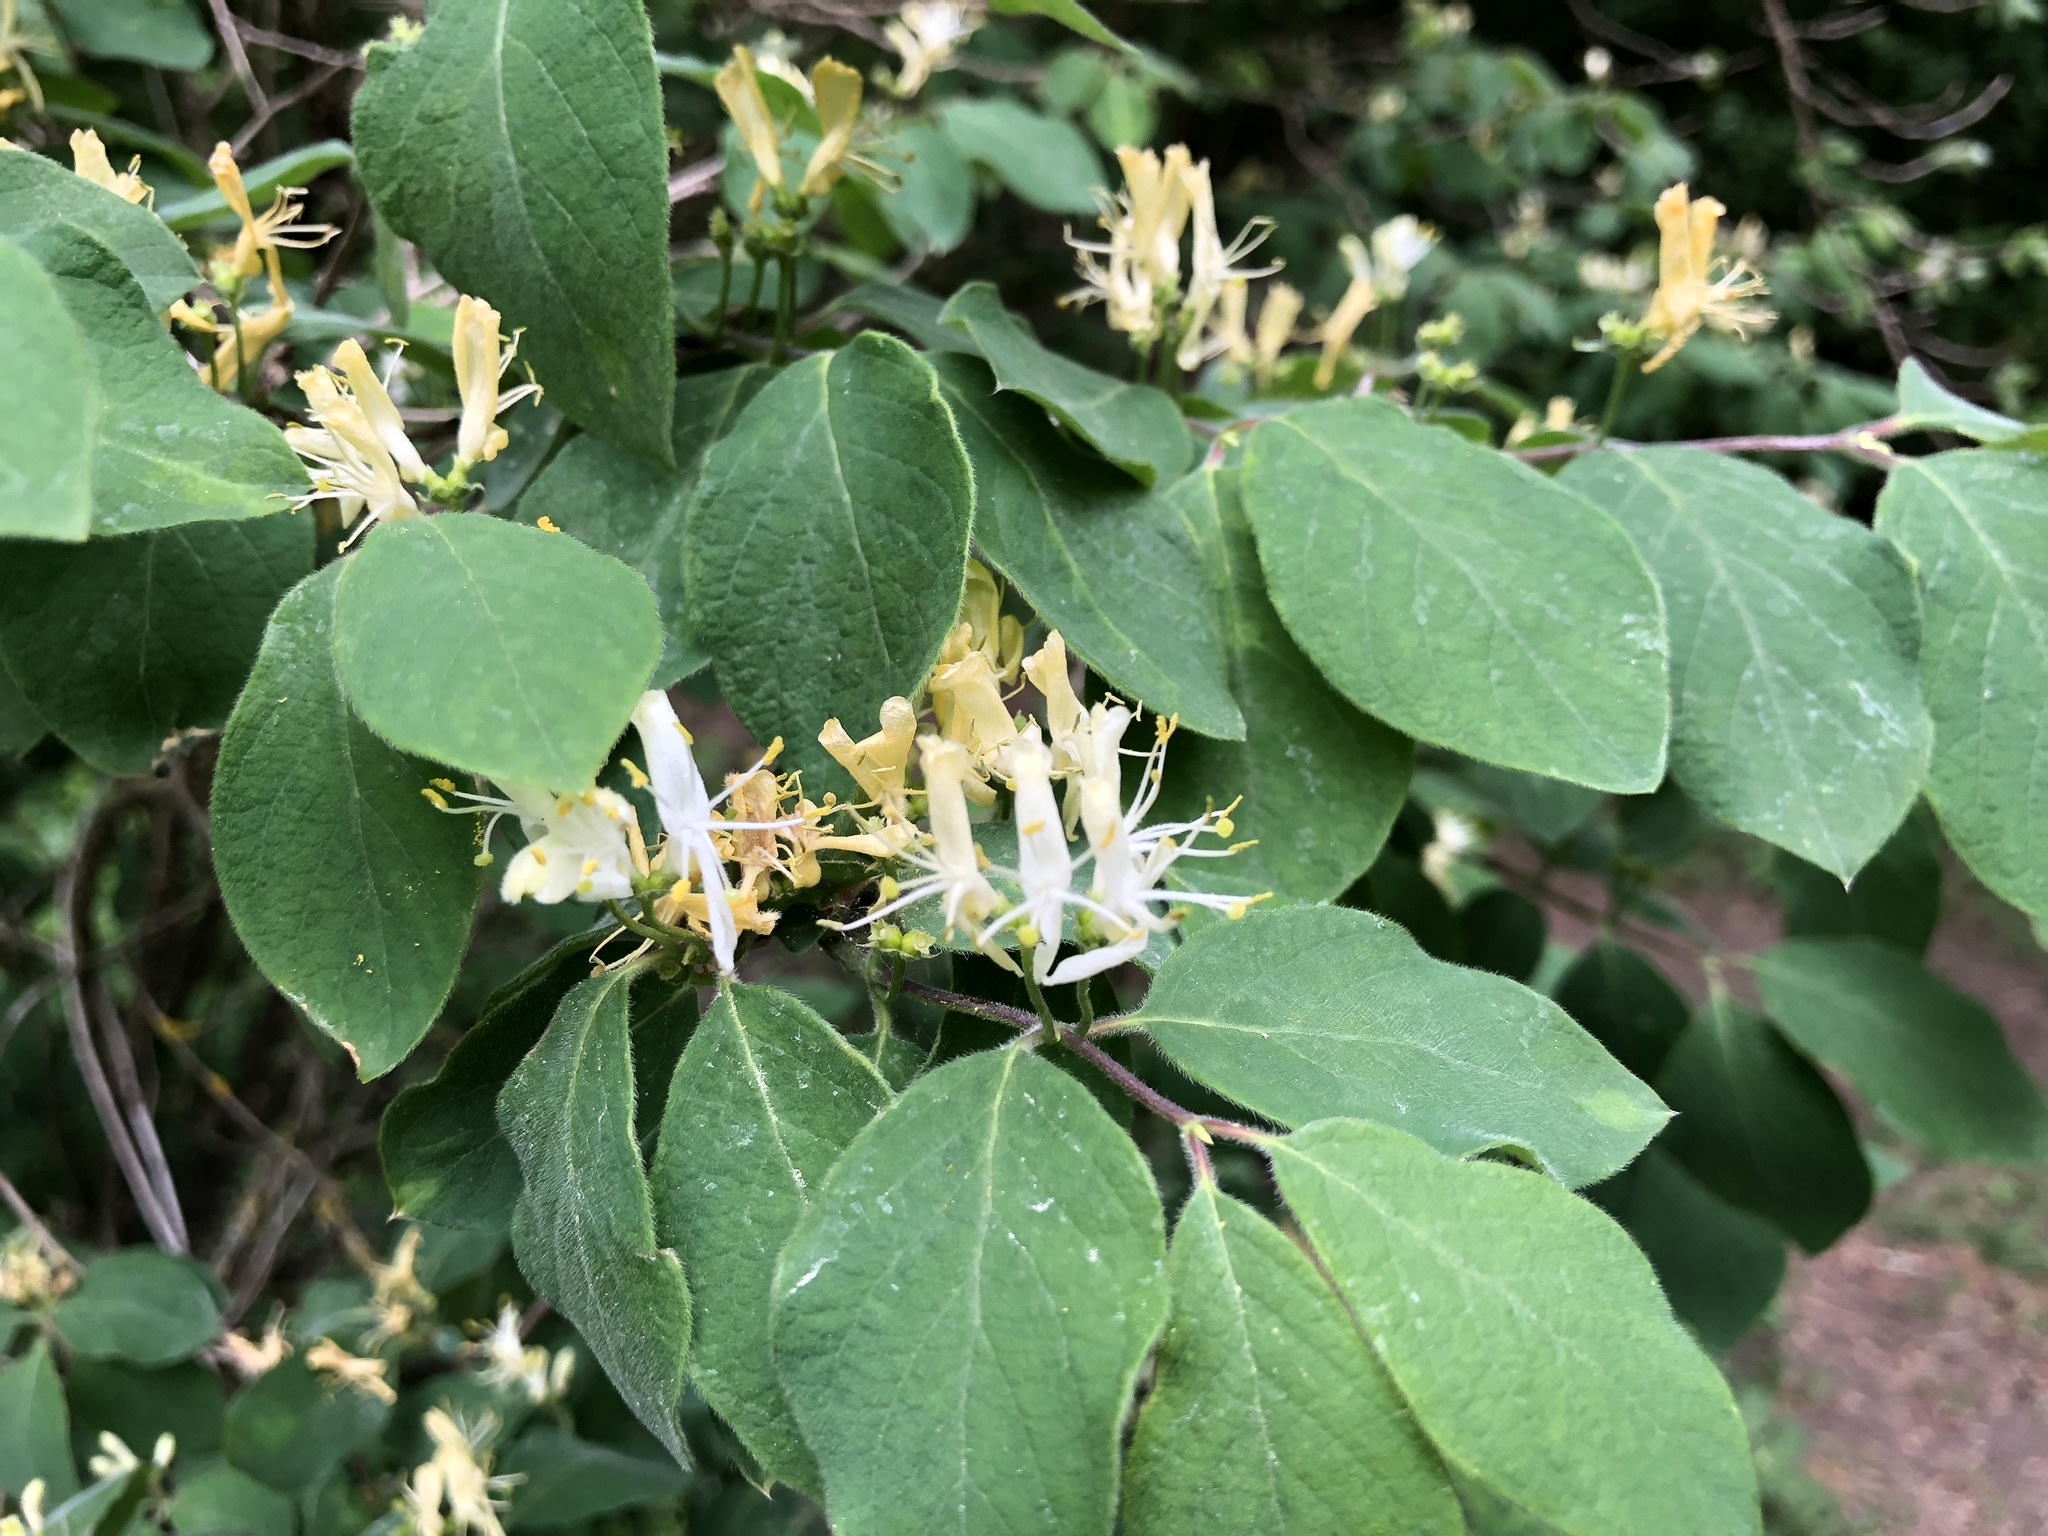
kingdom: Plantae
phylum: Tracheophyta
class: Magnoliopsida
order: Dipsacales
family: Caprifoliaceae
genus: Lonicera
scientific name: Lonicera xylosteum
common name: Fly honeysuckle
